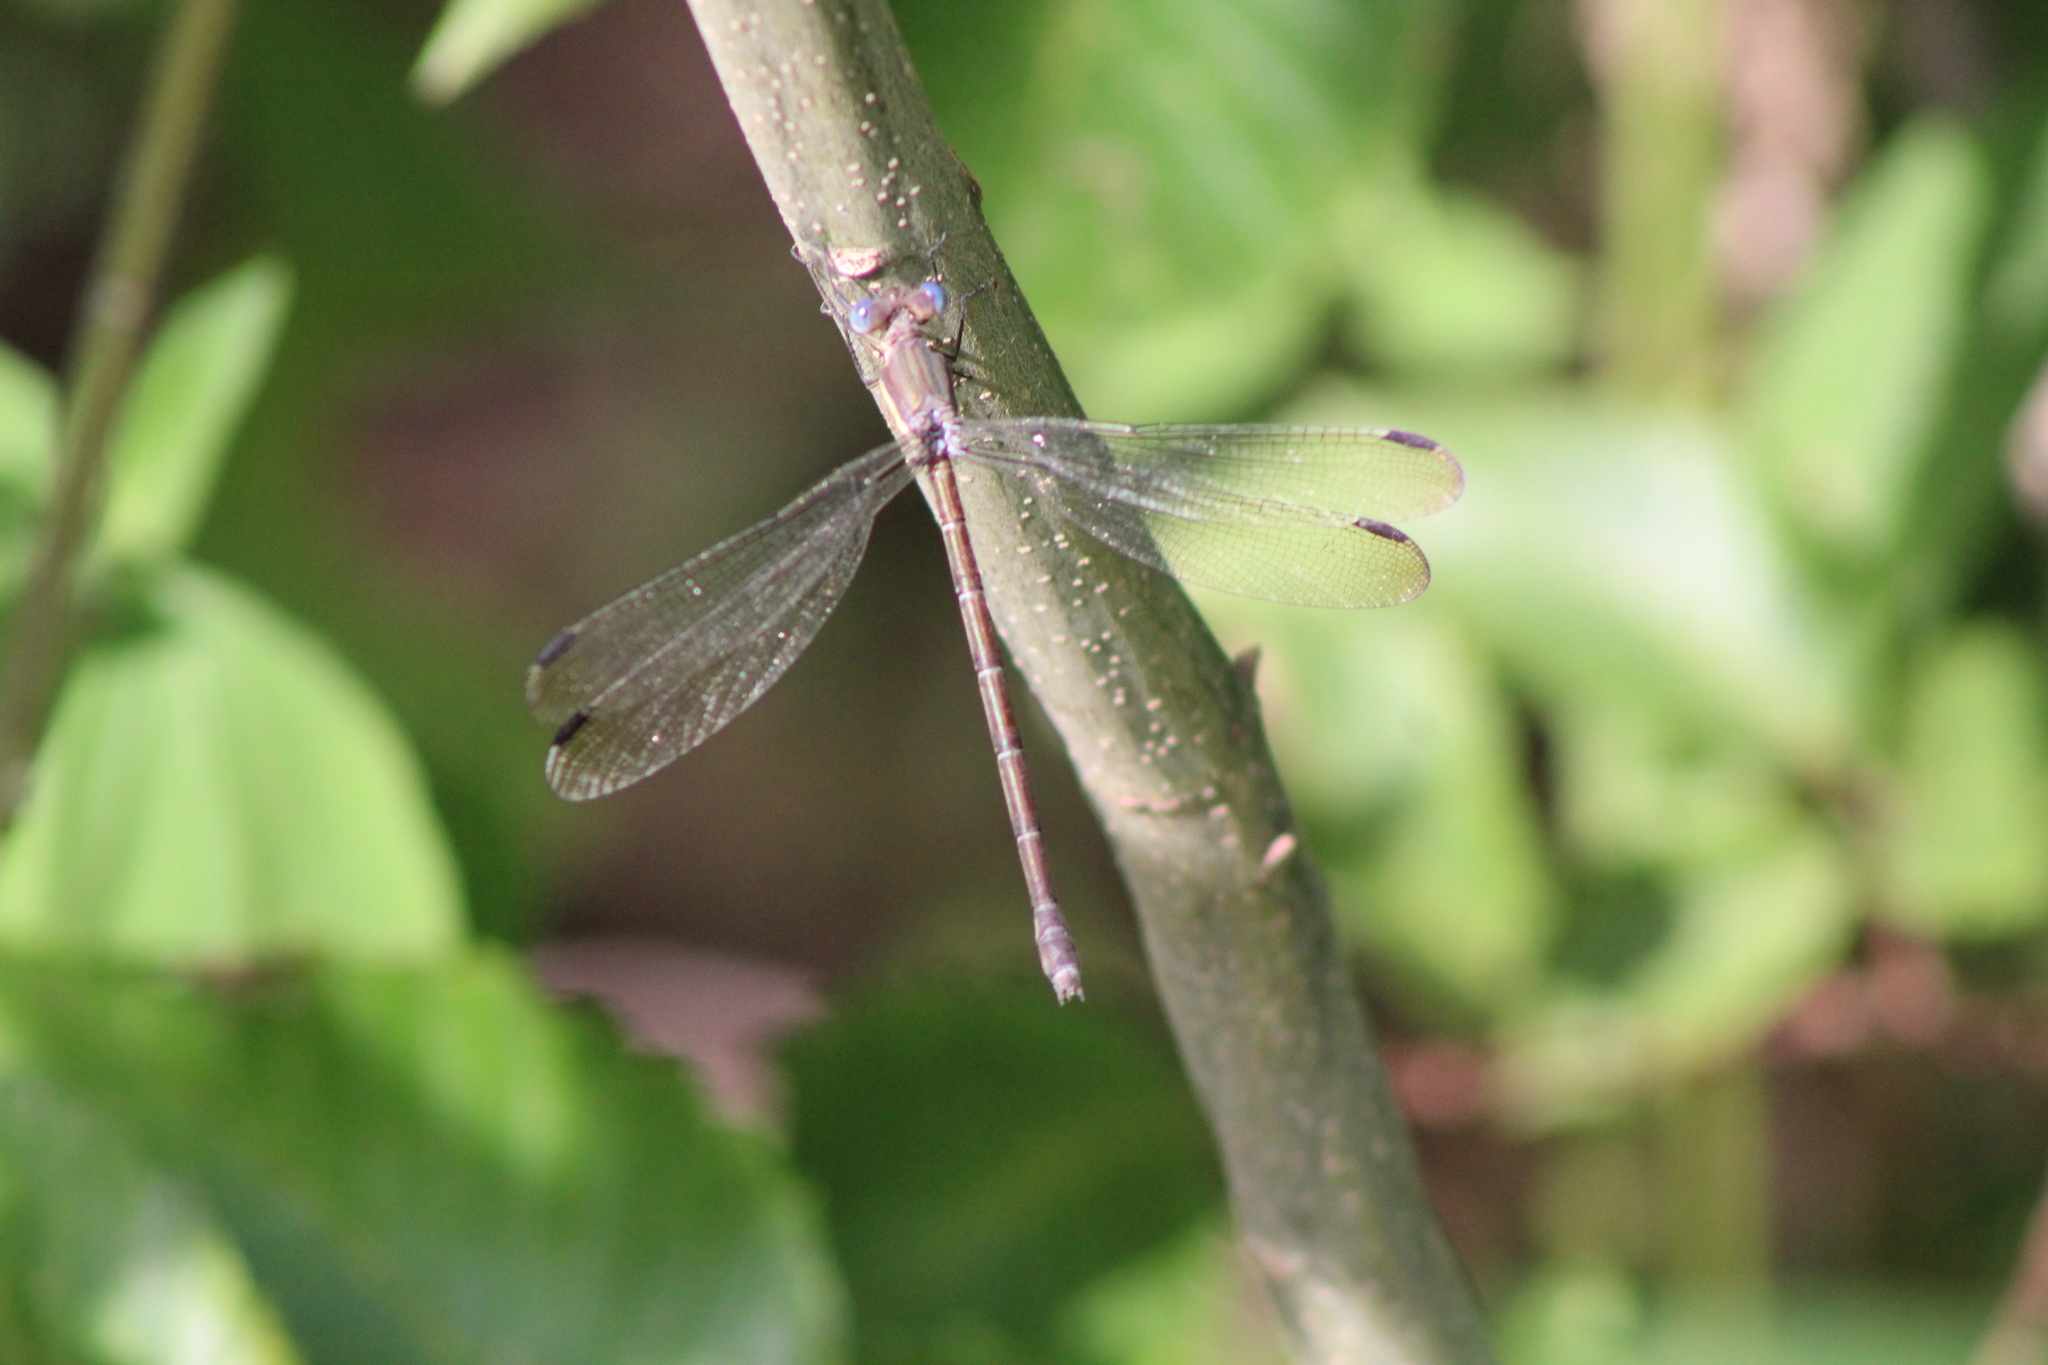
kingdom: Animalia
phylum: Arthropoda
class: Insecta
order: Odonata
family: Lestidae
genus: Archilestes
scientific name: Archilestes grandis
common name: Great spreadwing
